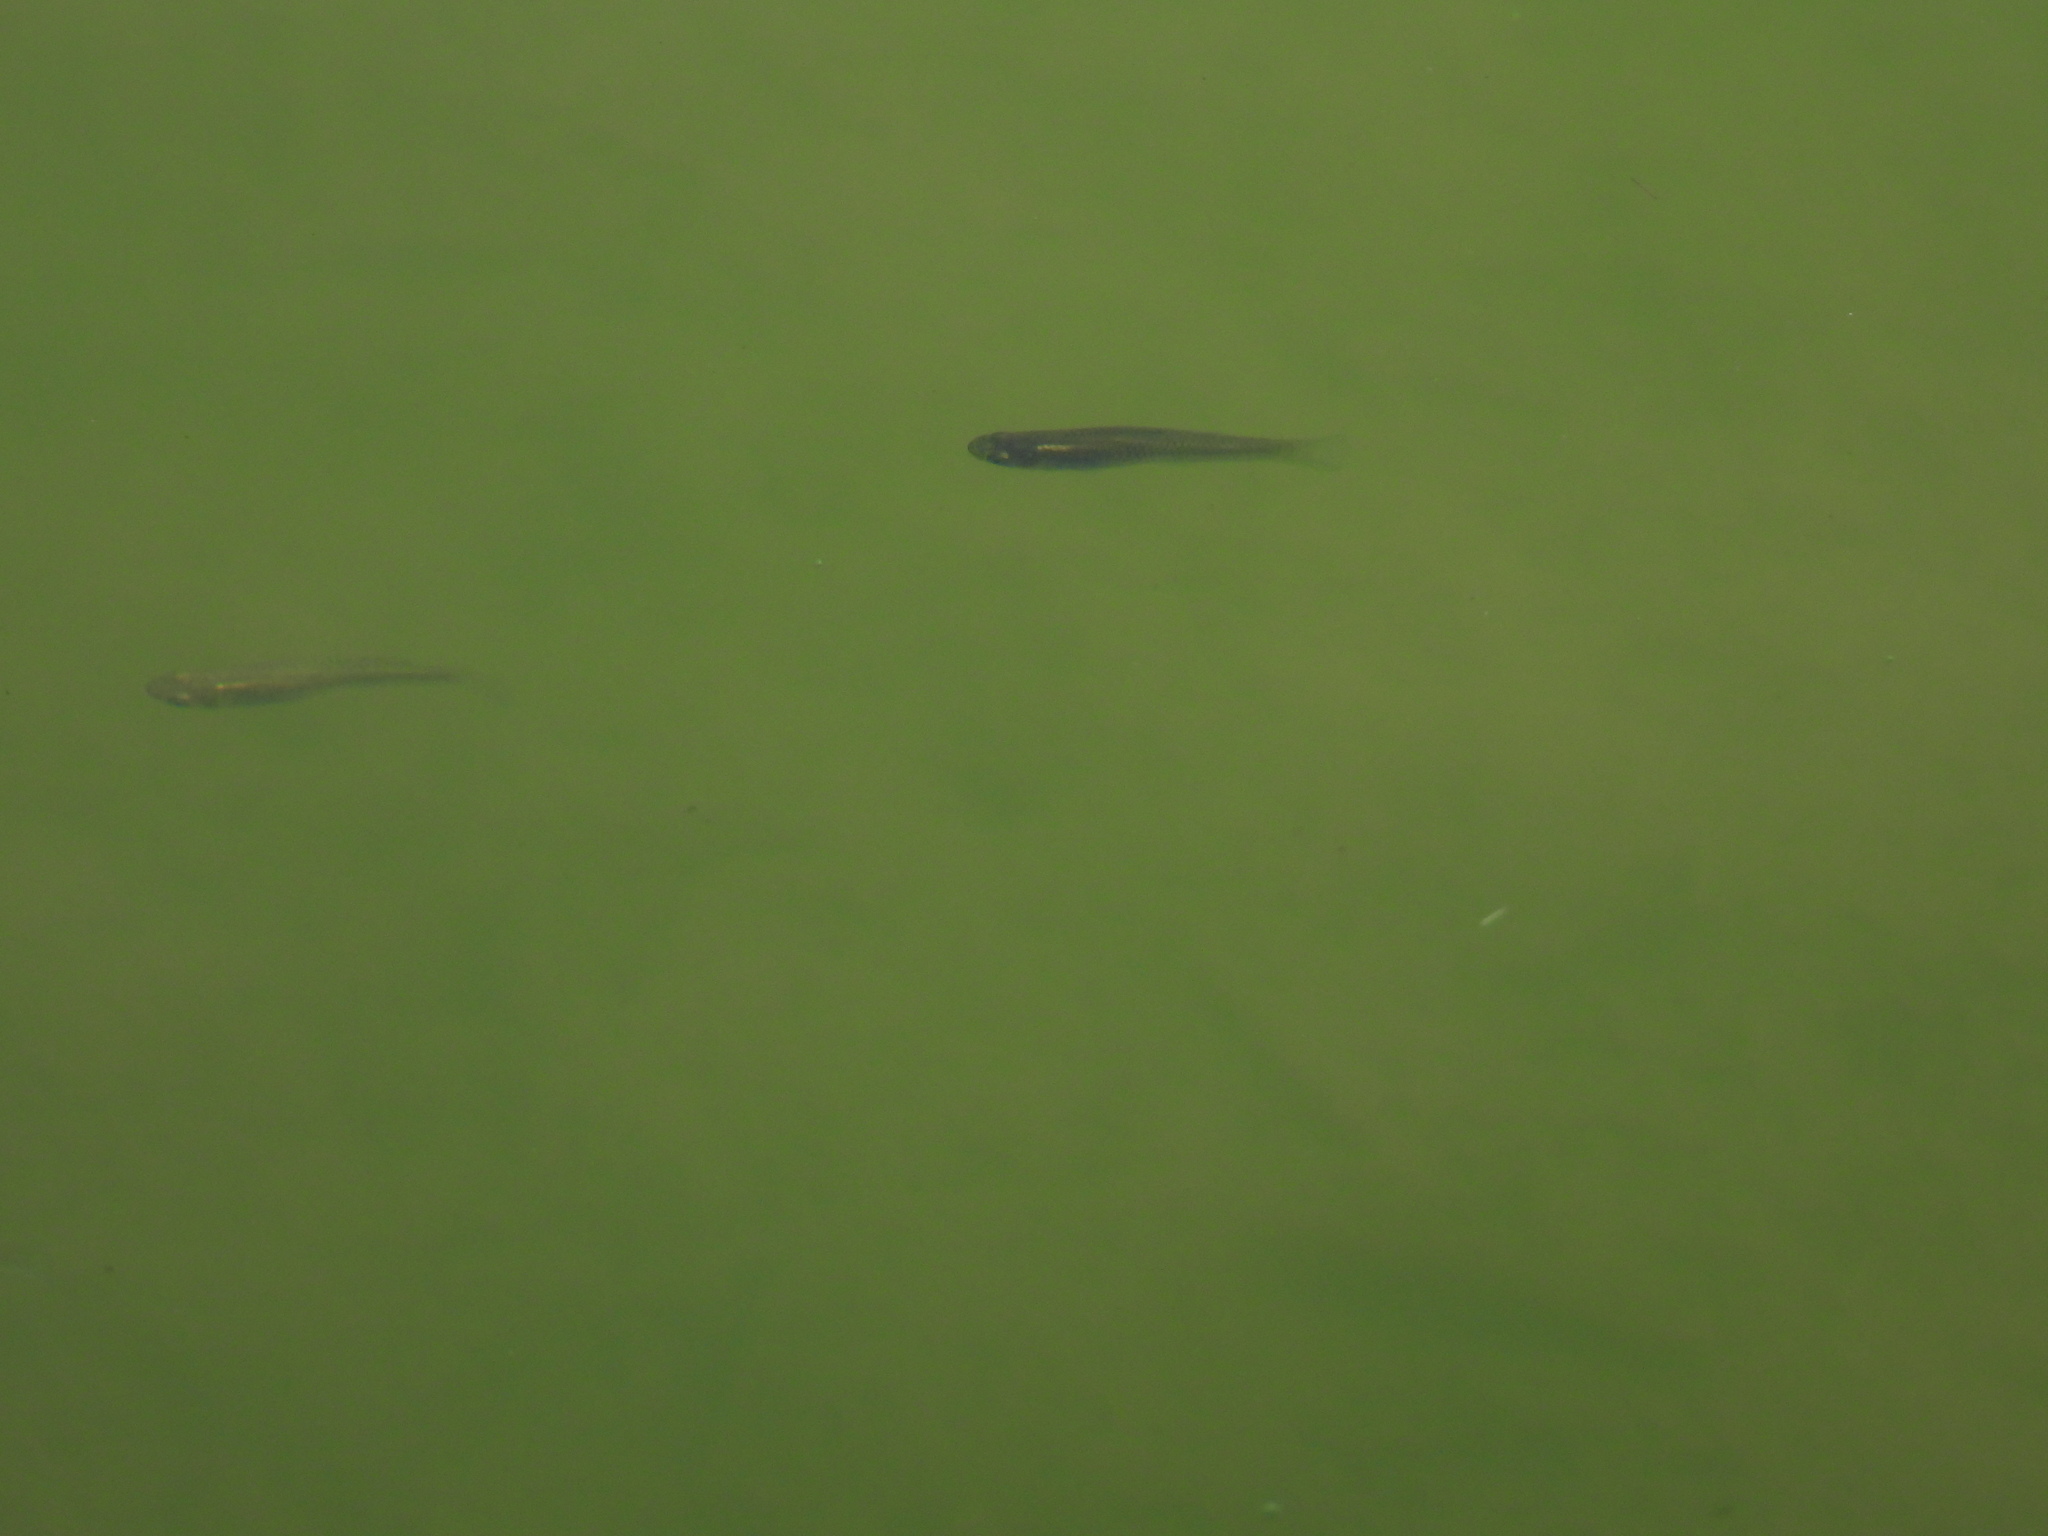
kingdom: Animalia
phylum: Chordata
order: Cyprinodontiformes
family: Poeciliidae
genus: Gambusia
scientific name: Gambusia affinis
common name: Mosquitofish
